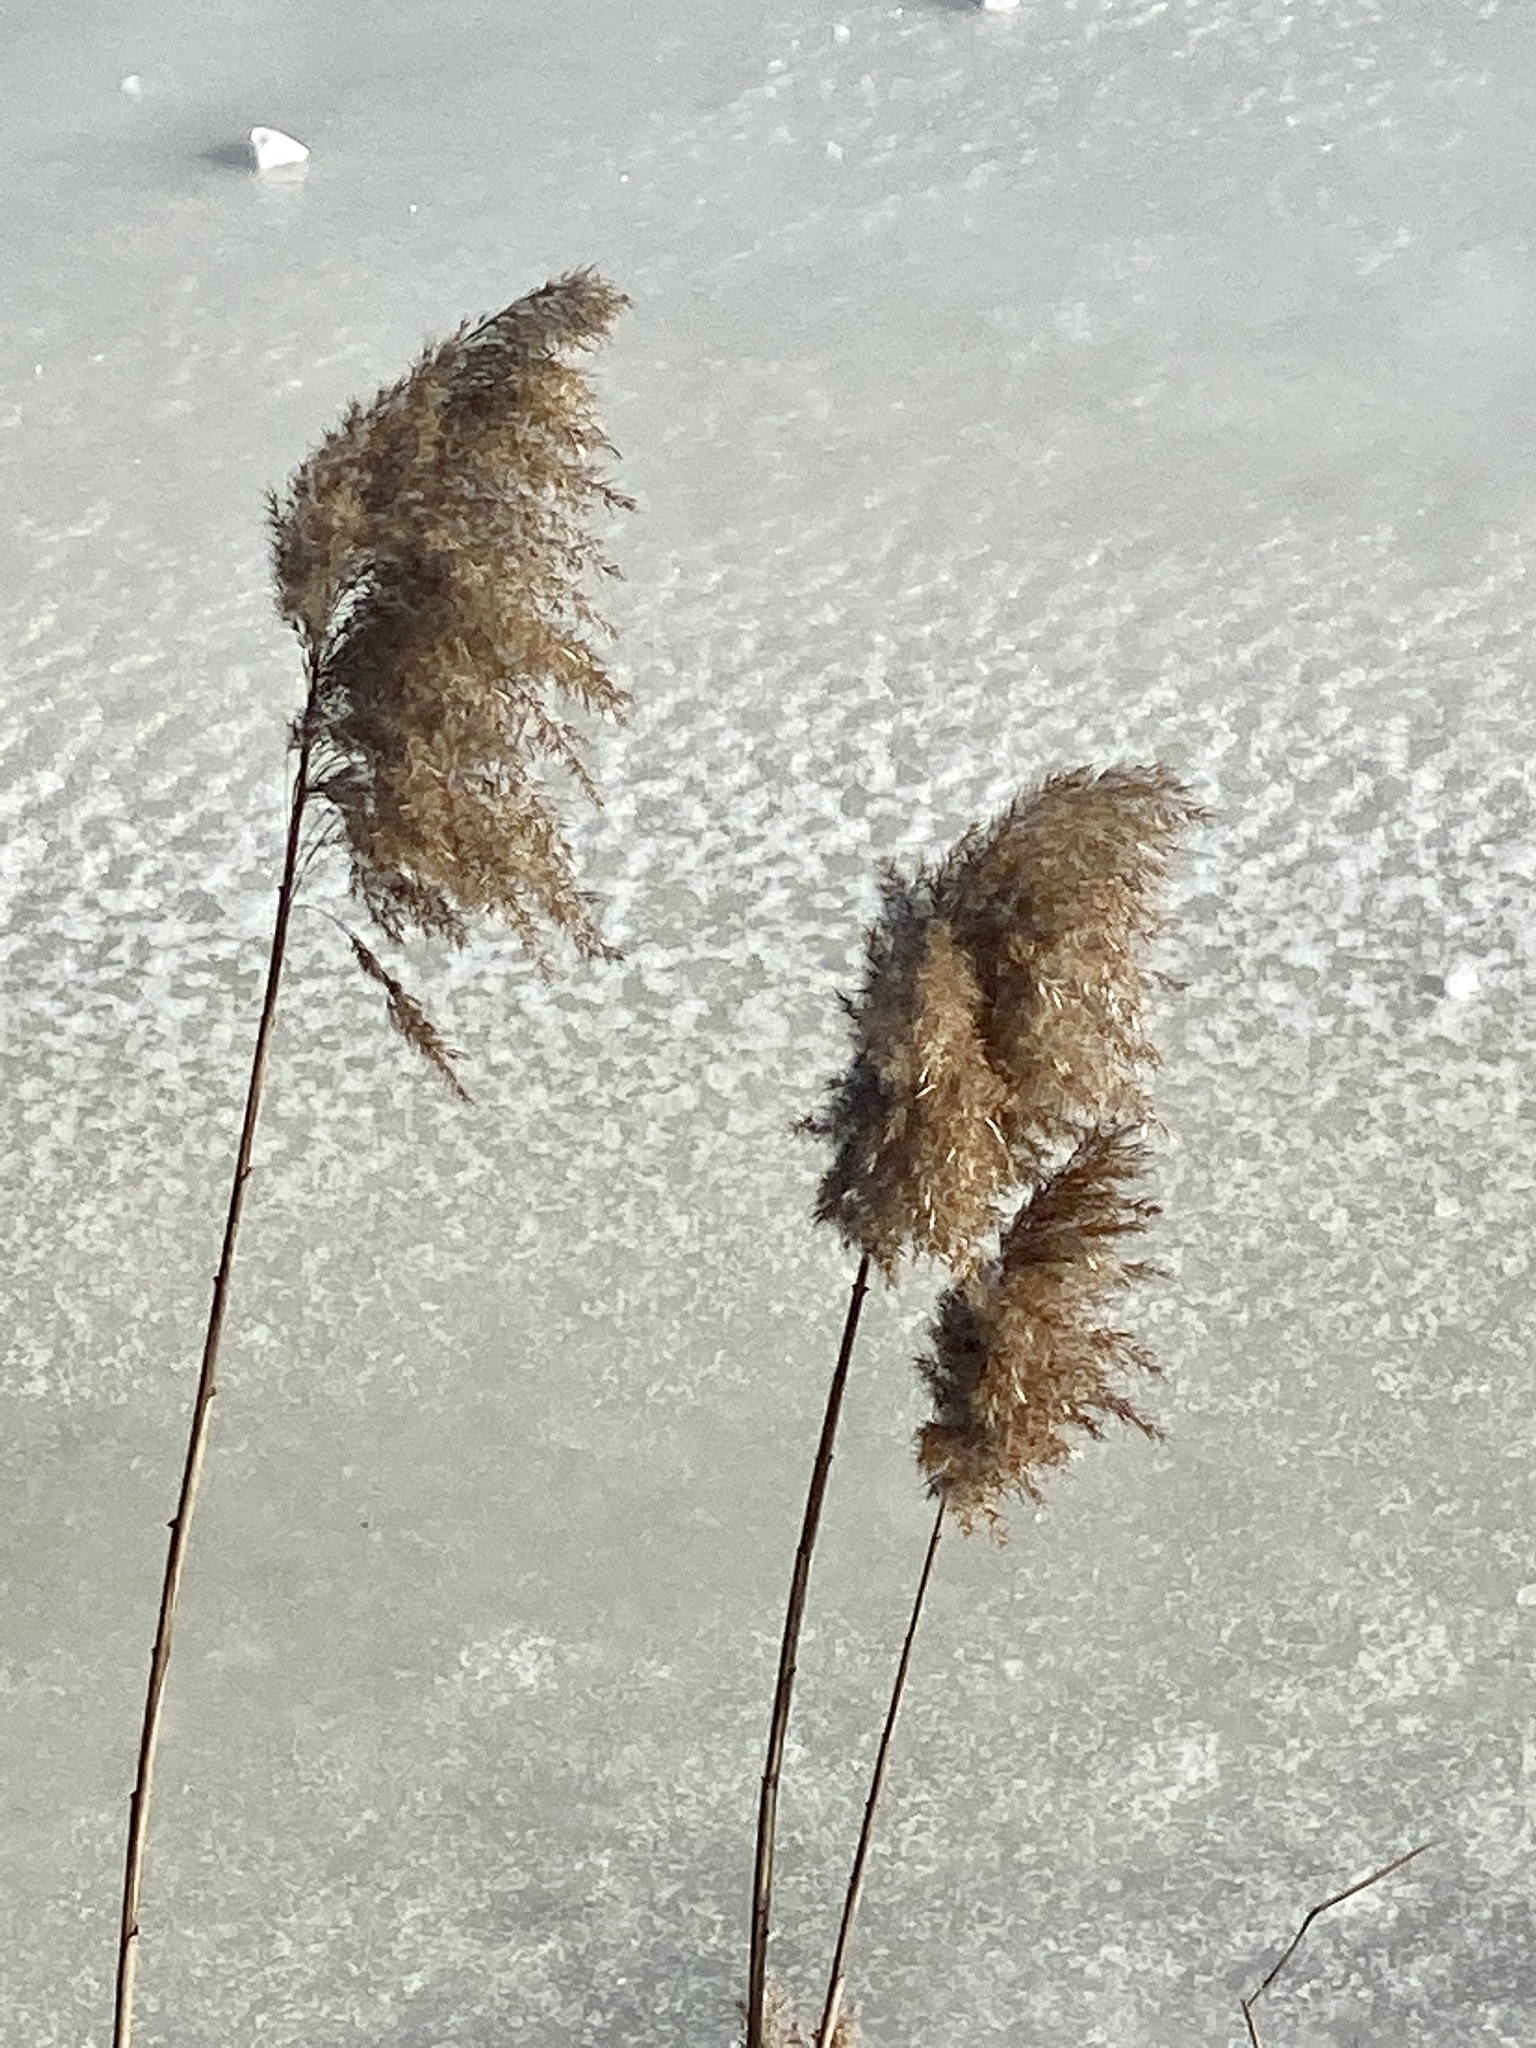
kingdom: Plantae
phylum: Tracheophyta
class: Liliopsida
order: Poales
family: Poaceae
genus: Phragmites
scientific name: Phragmites australis
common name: Common reed
